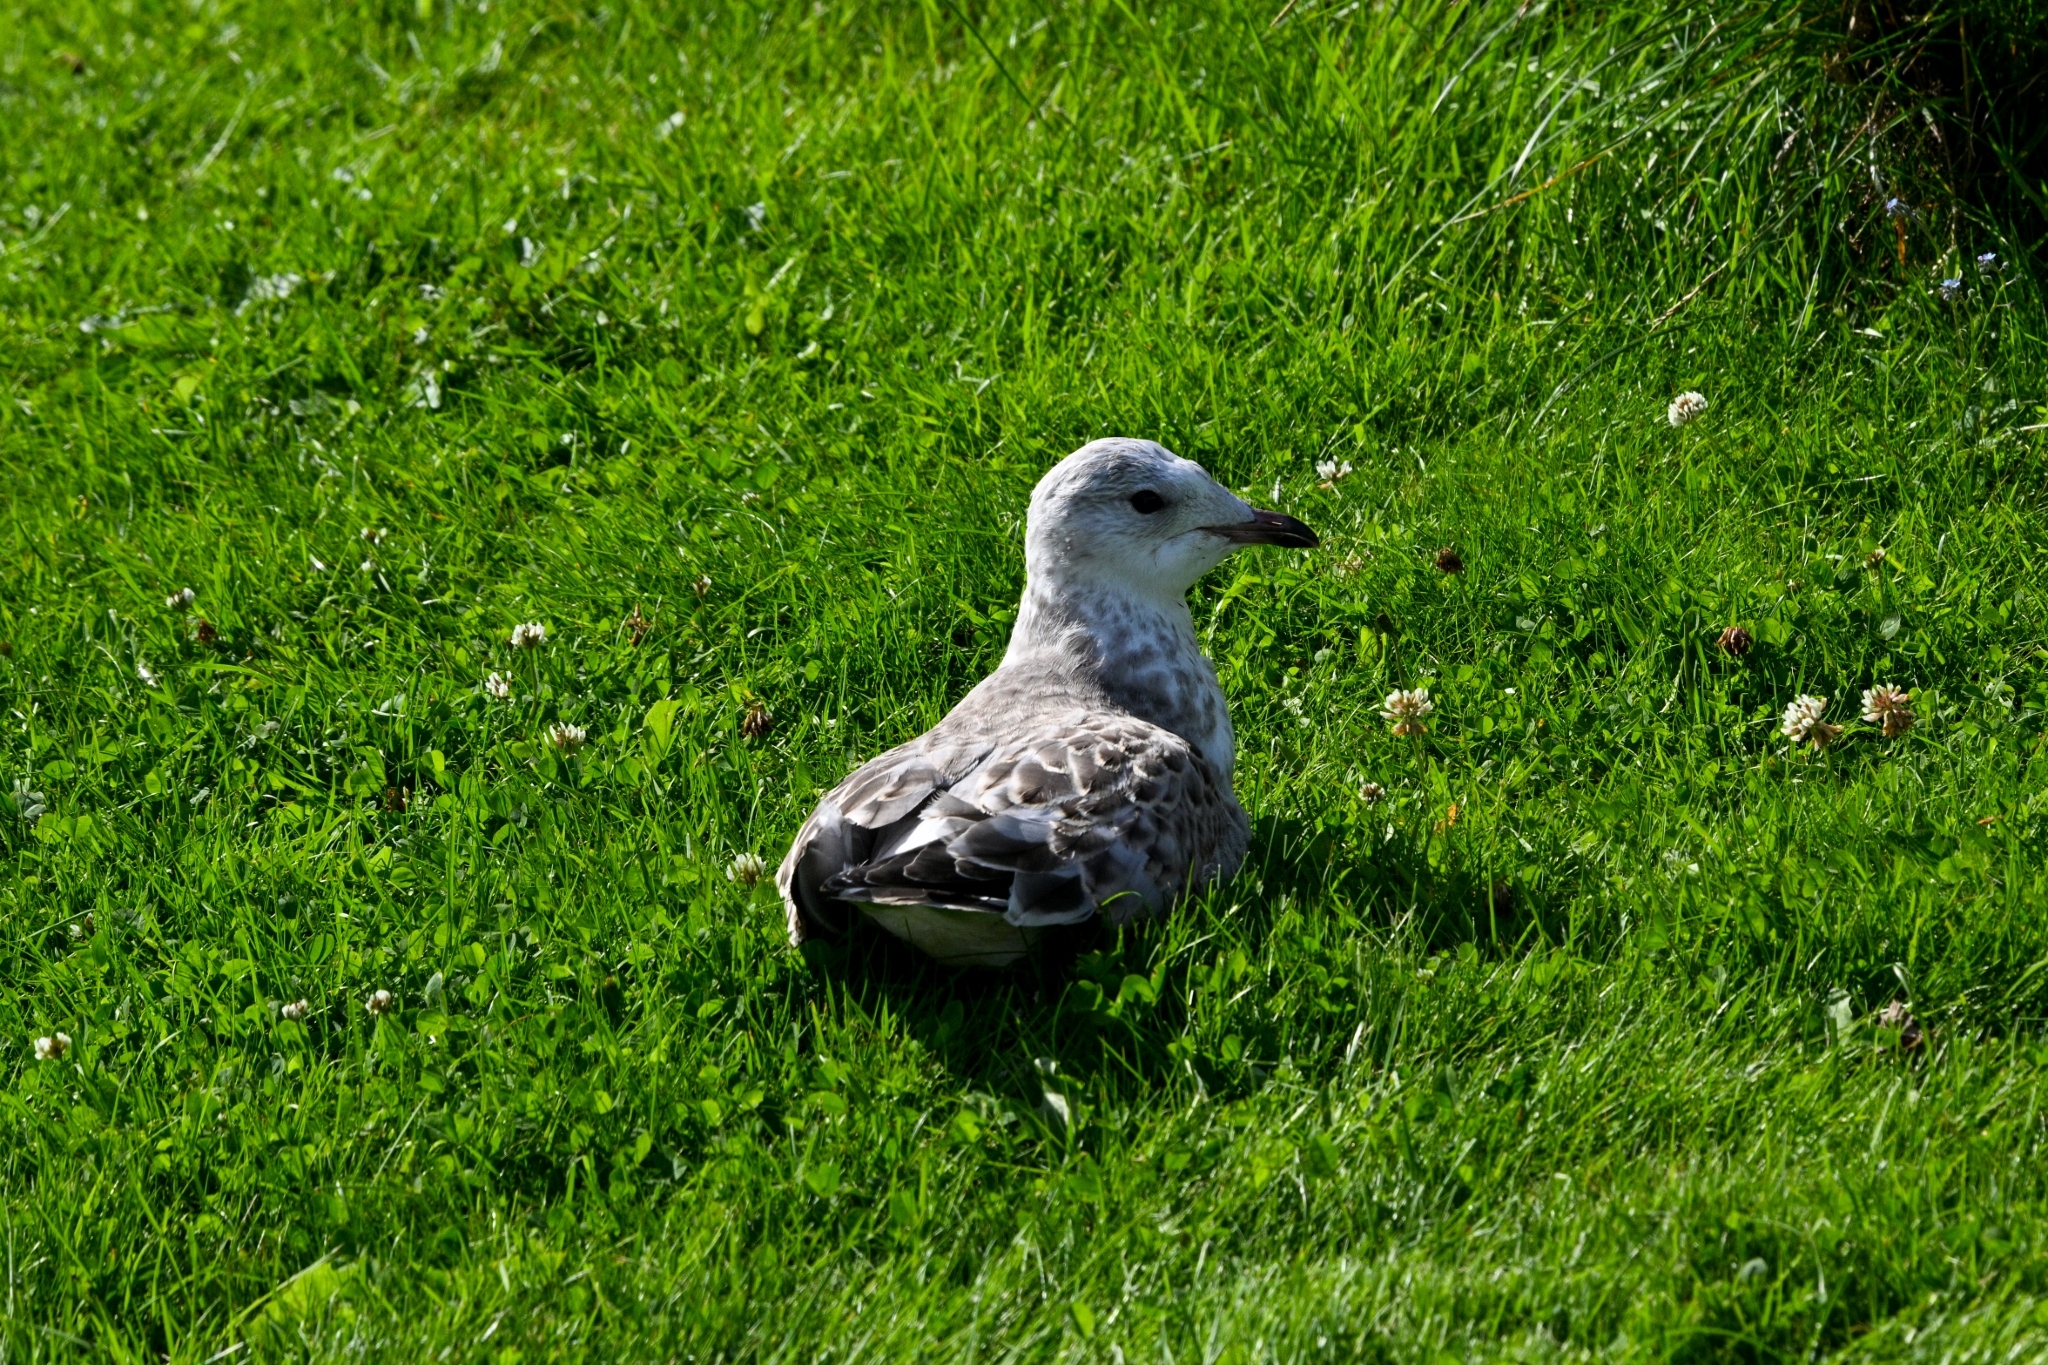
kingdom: Animalia
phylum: Chordata
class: Aves
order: Charadriiformes
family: Laridae
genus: Larus
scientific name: Larus canus
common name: Mew gull
